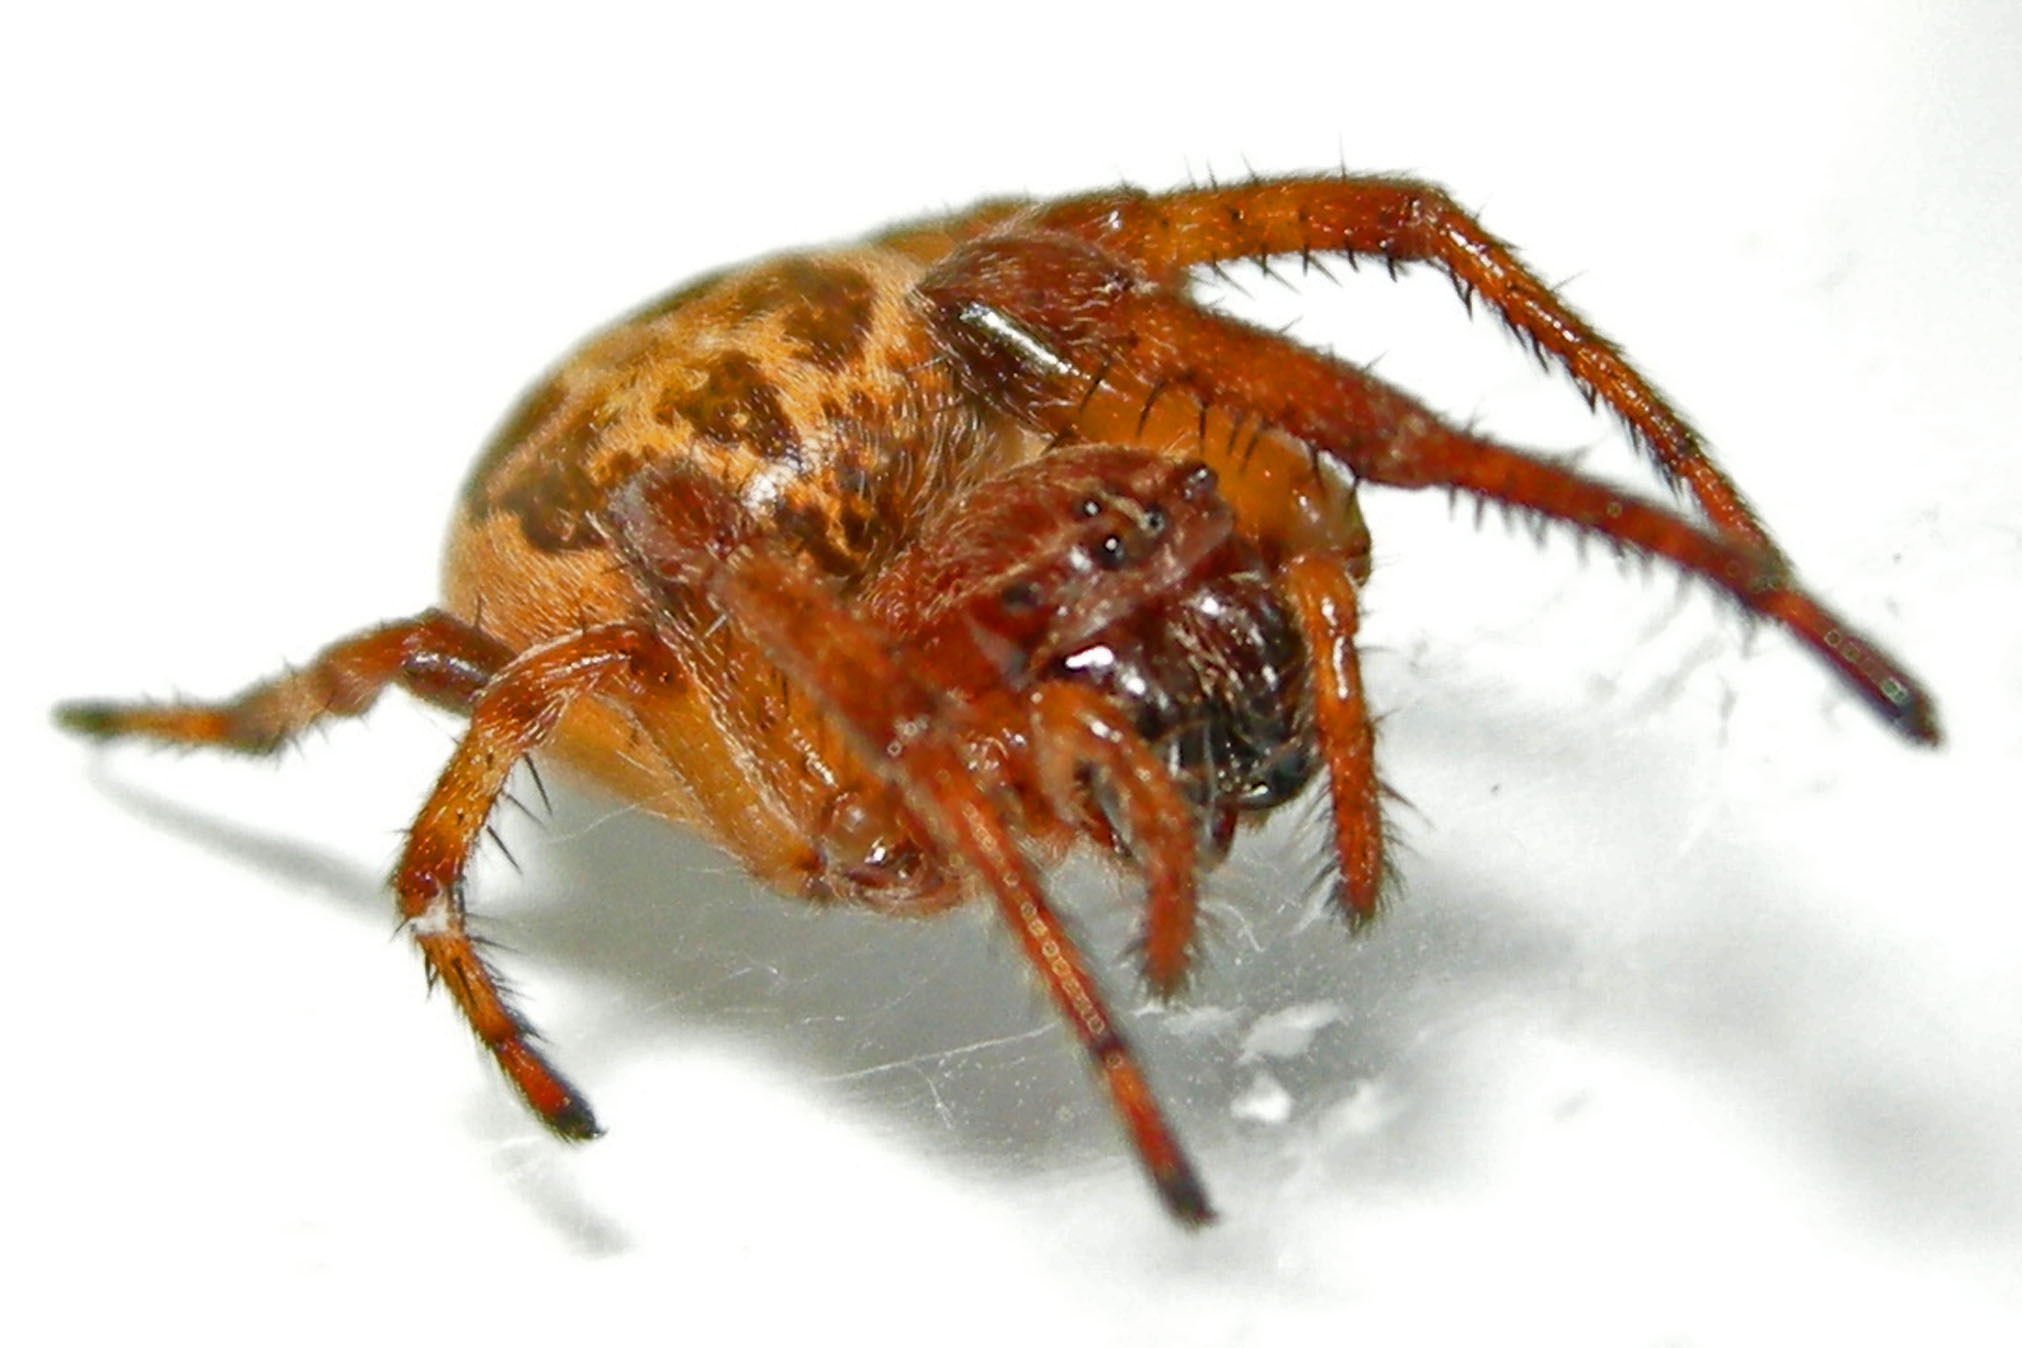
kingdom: Animalia
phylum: Arthropoda
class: Arachnida
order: Araneae
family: Araneidae
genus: Larinioides
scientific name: Larinioides cornutus
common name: Furrow orbweaver
